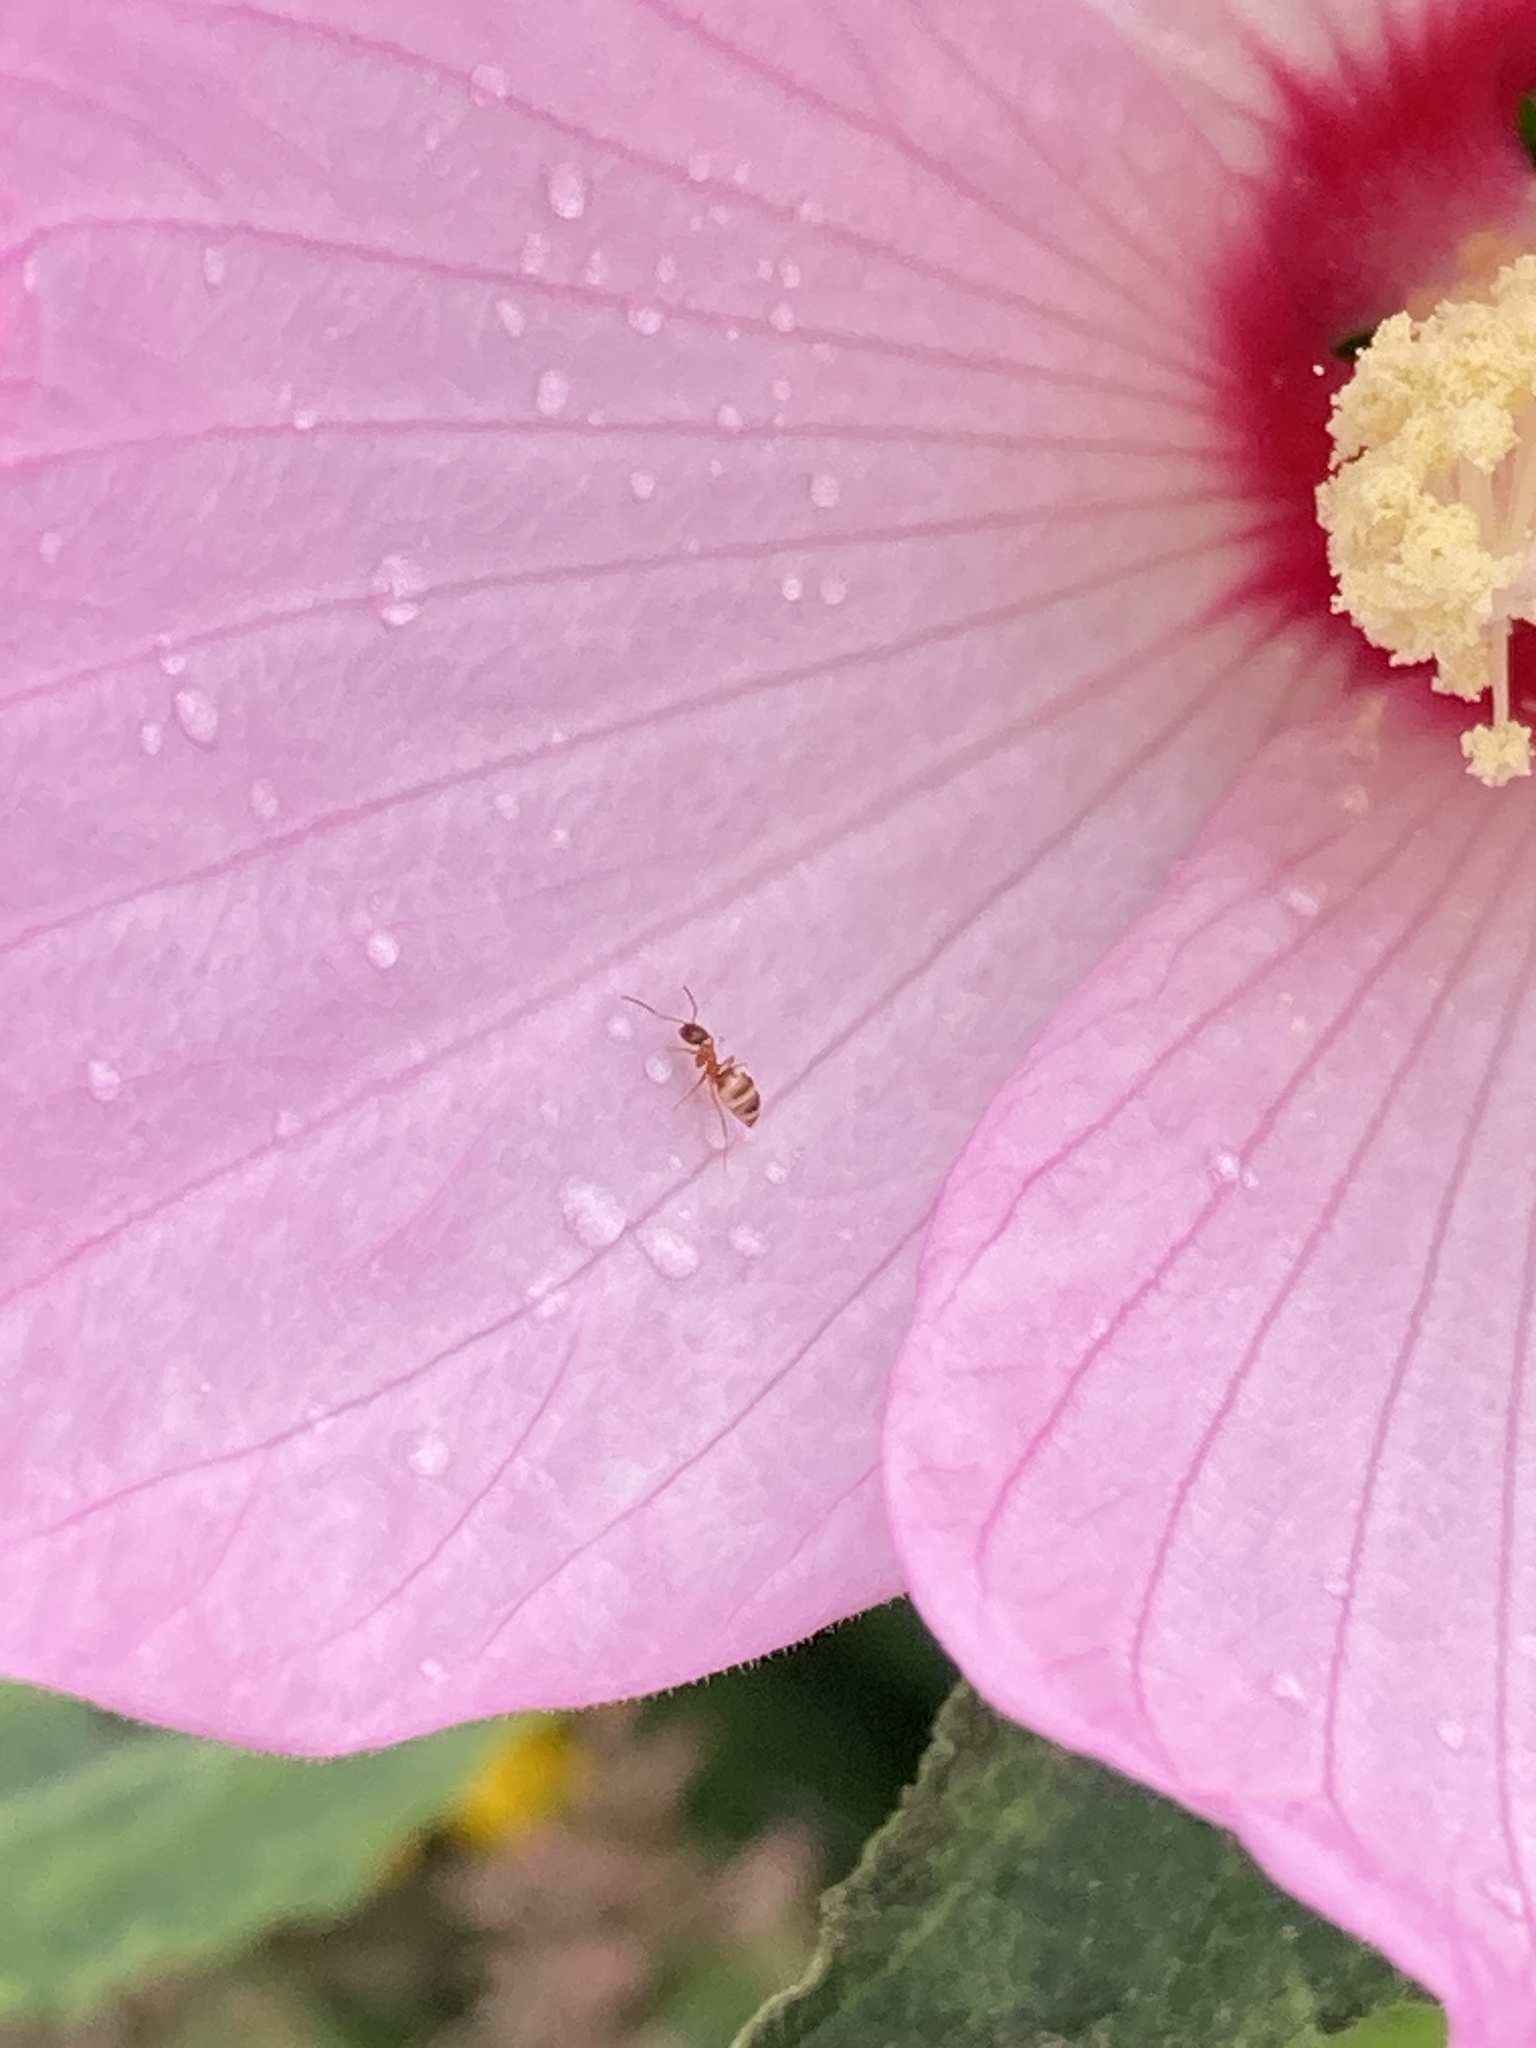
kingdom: Animalia
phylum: Arthropoda
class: Insecta
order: Hymenoptera
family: Formicidae
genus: Paratrechina
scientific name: Paratrechina flavipes
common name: Eastern asian formicine ant
